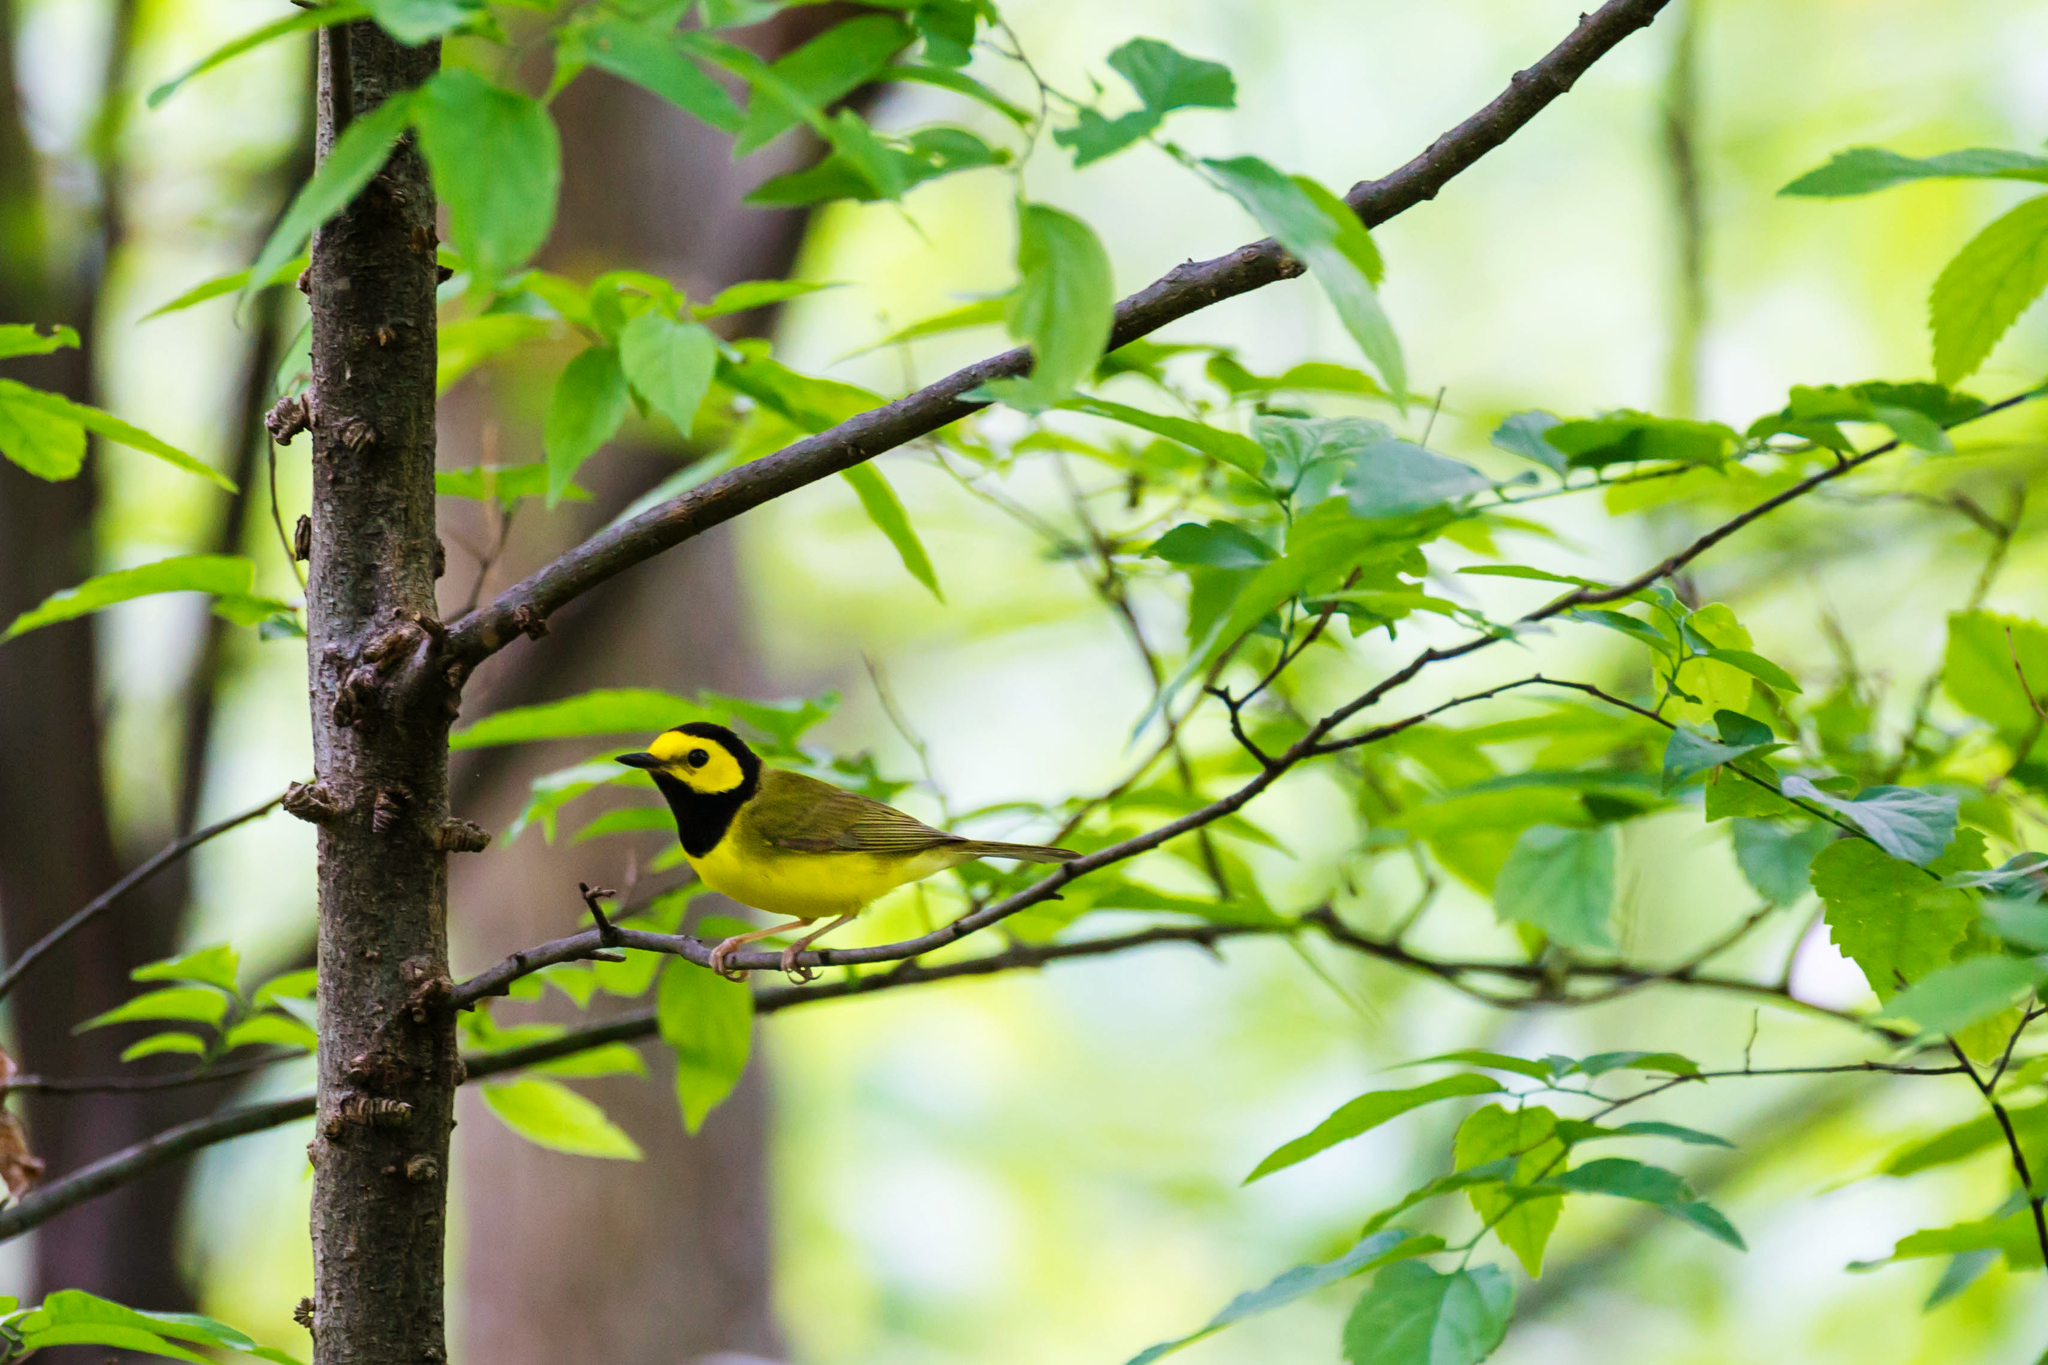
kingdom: Animalia
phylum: Chordata
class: Aves
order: Passeriformes
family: Parulidae
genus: Setophaga
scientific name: Setophaga citrina
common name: Hooded warbler
